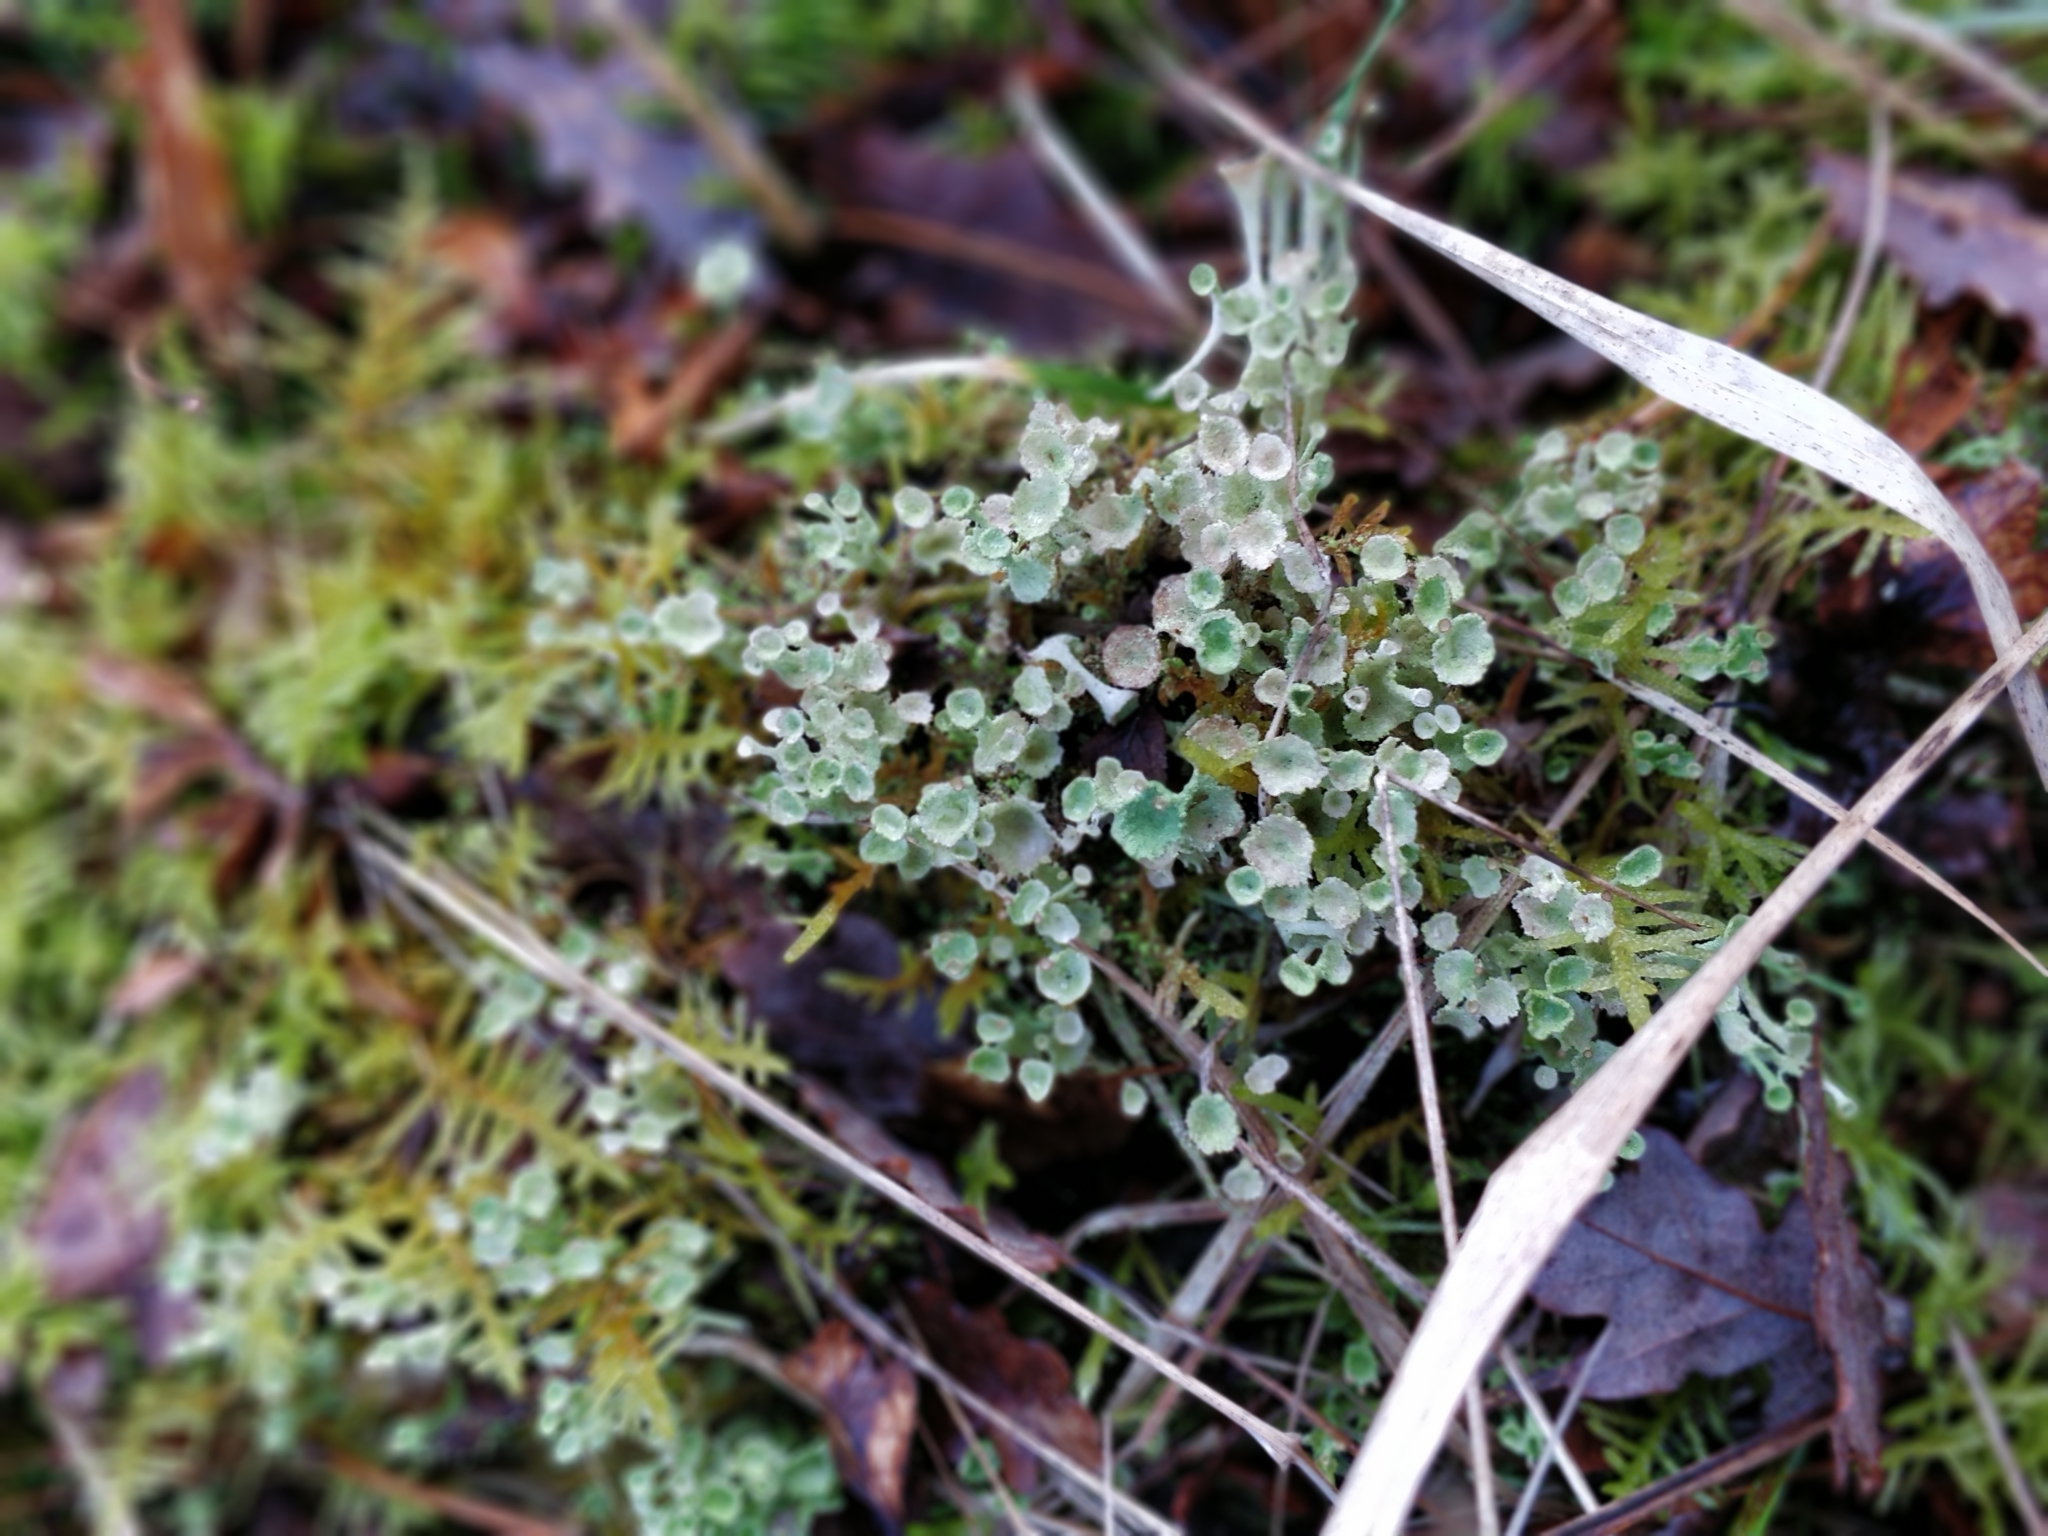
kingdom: Fungi
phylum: Ascomycota
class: Lecanoromycetes
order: Lecanorales
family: Cladoniaceae
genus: Cladonia
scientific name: Cladonia fimbriata
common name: Powdered trumpet lichen
